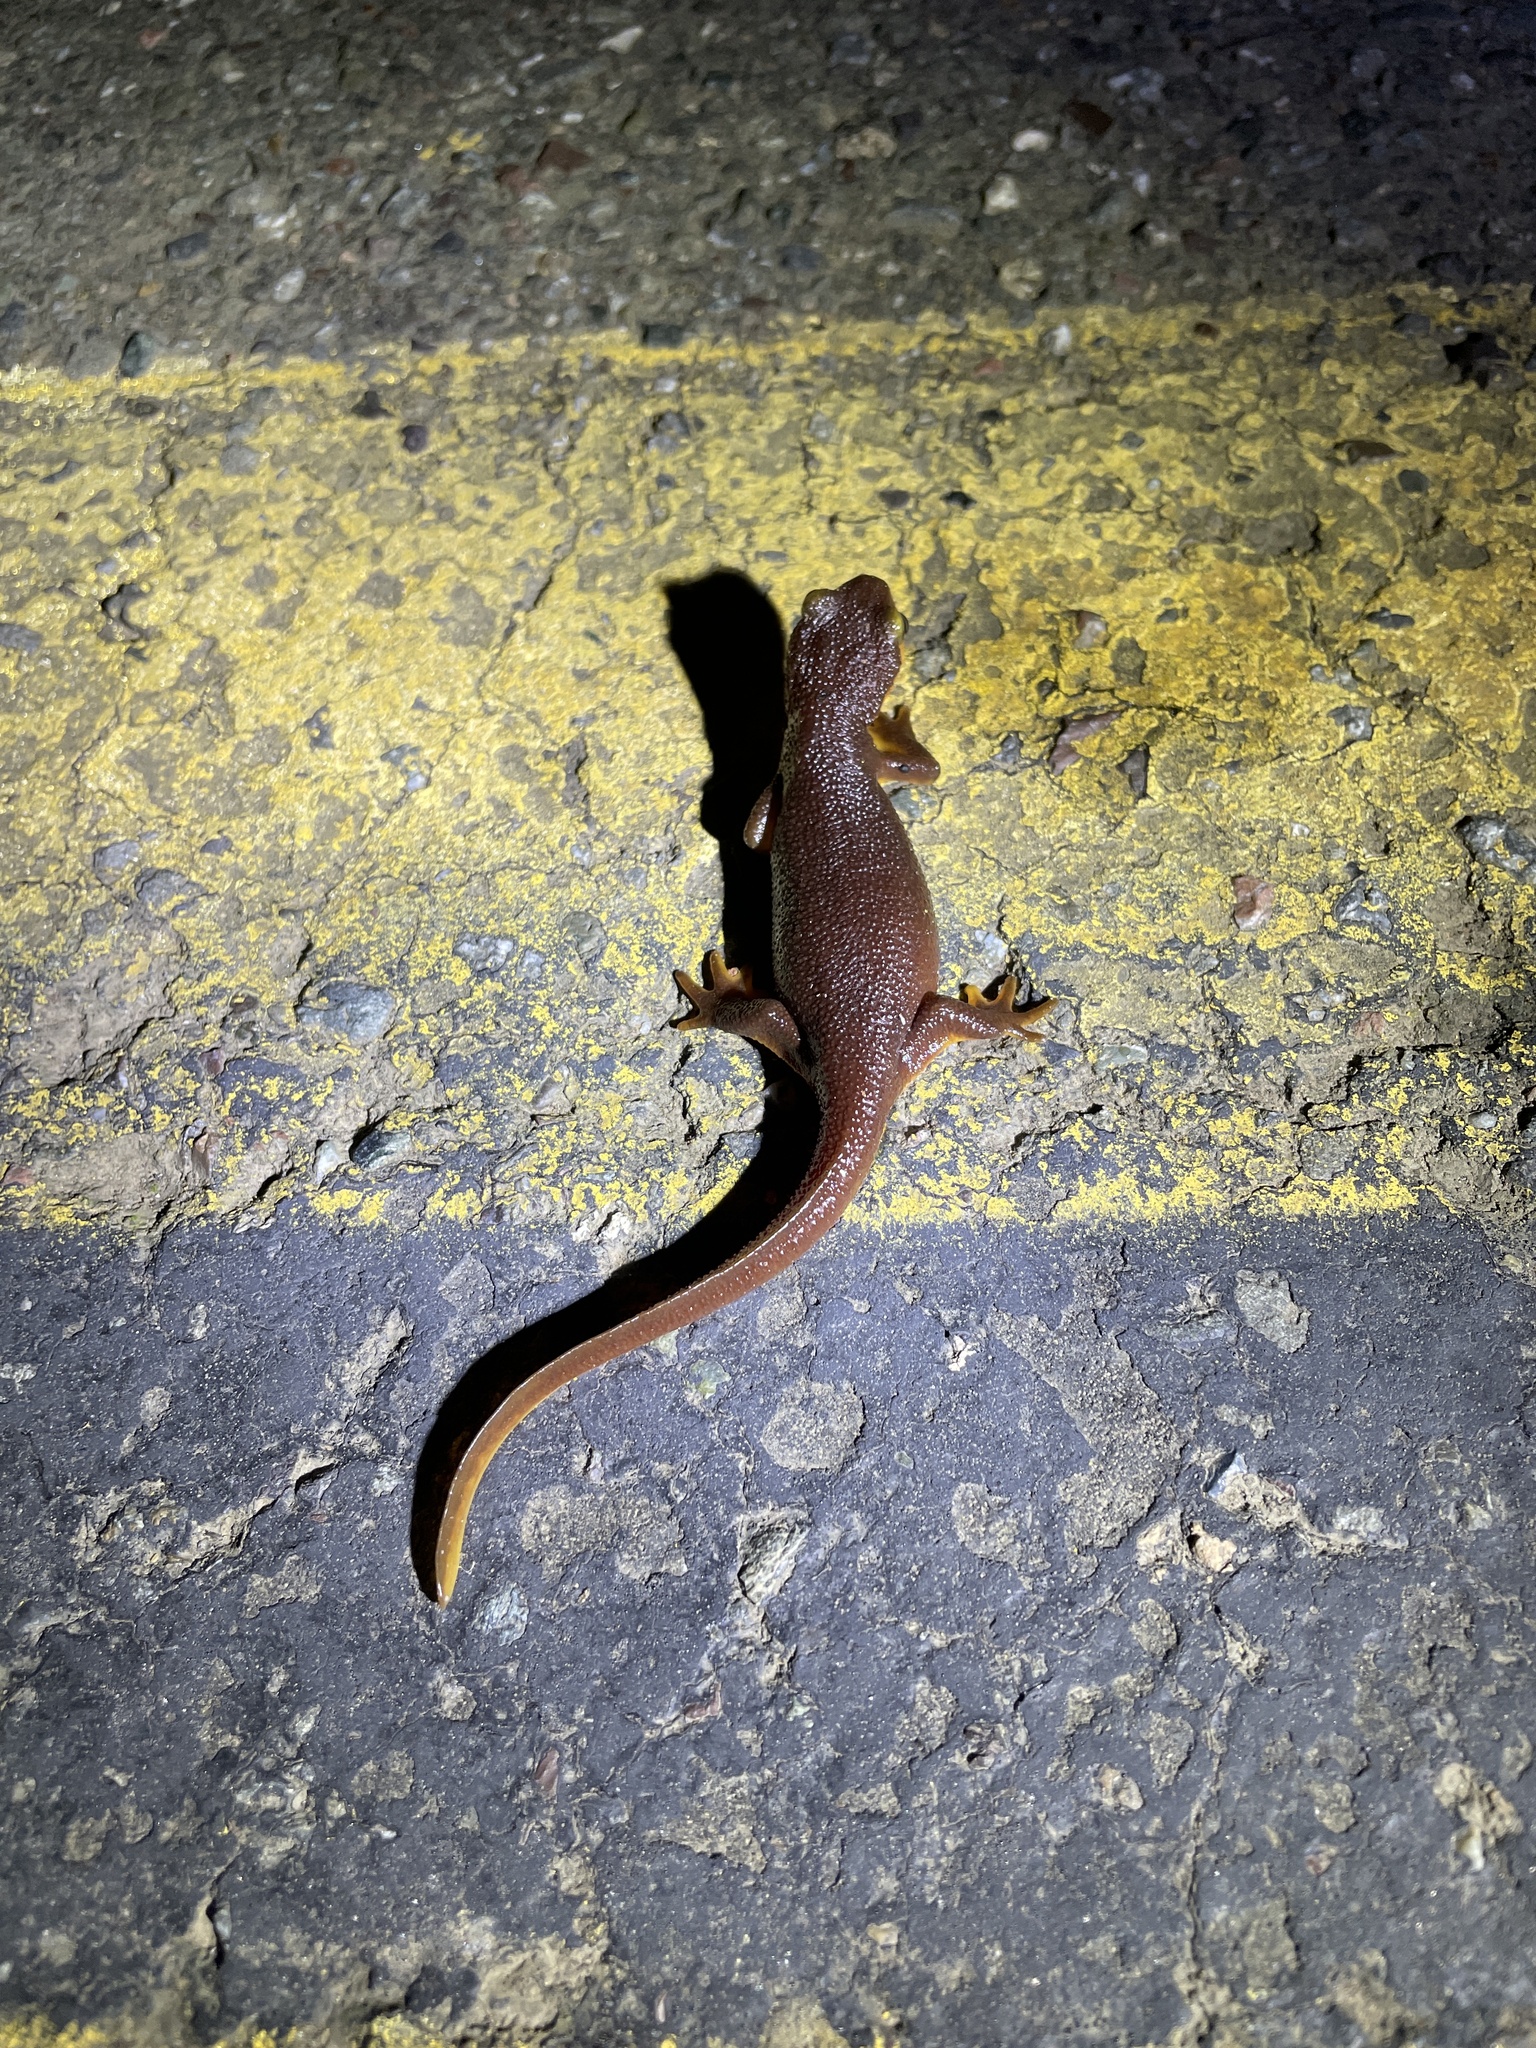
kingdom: Animalia
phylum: Chordata
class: Amphibia
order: Caudata
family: Salamandridae
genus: Taricha
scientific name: Taricha torosa
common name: California newt
